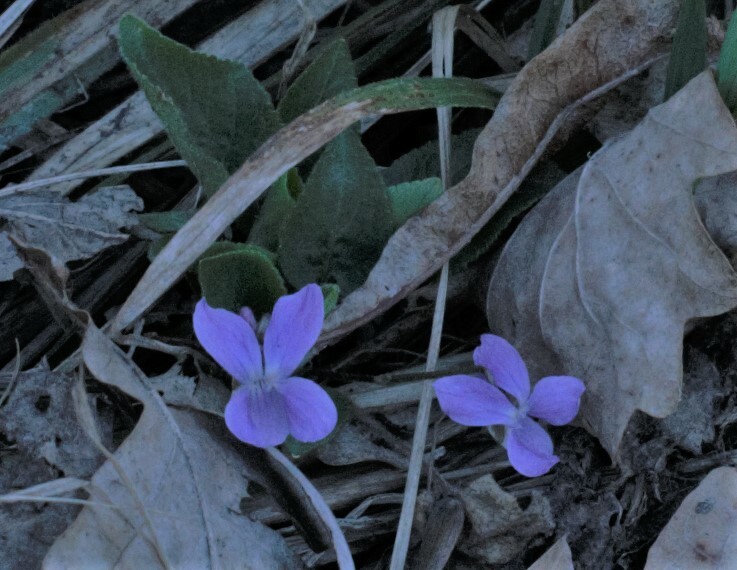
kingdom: Plantae
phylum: Tracheophyta
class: Magnoliopsida
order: Malpighiales
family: Violaceae
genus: Viola
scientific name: Viola hirta
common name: Hairy violet
